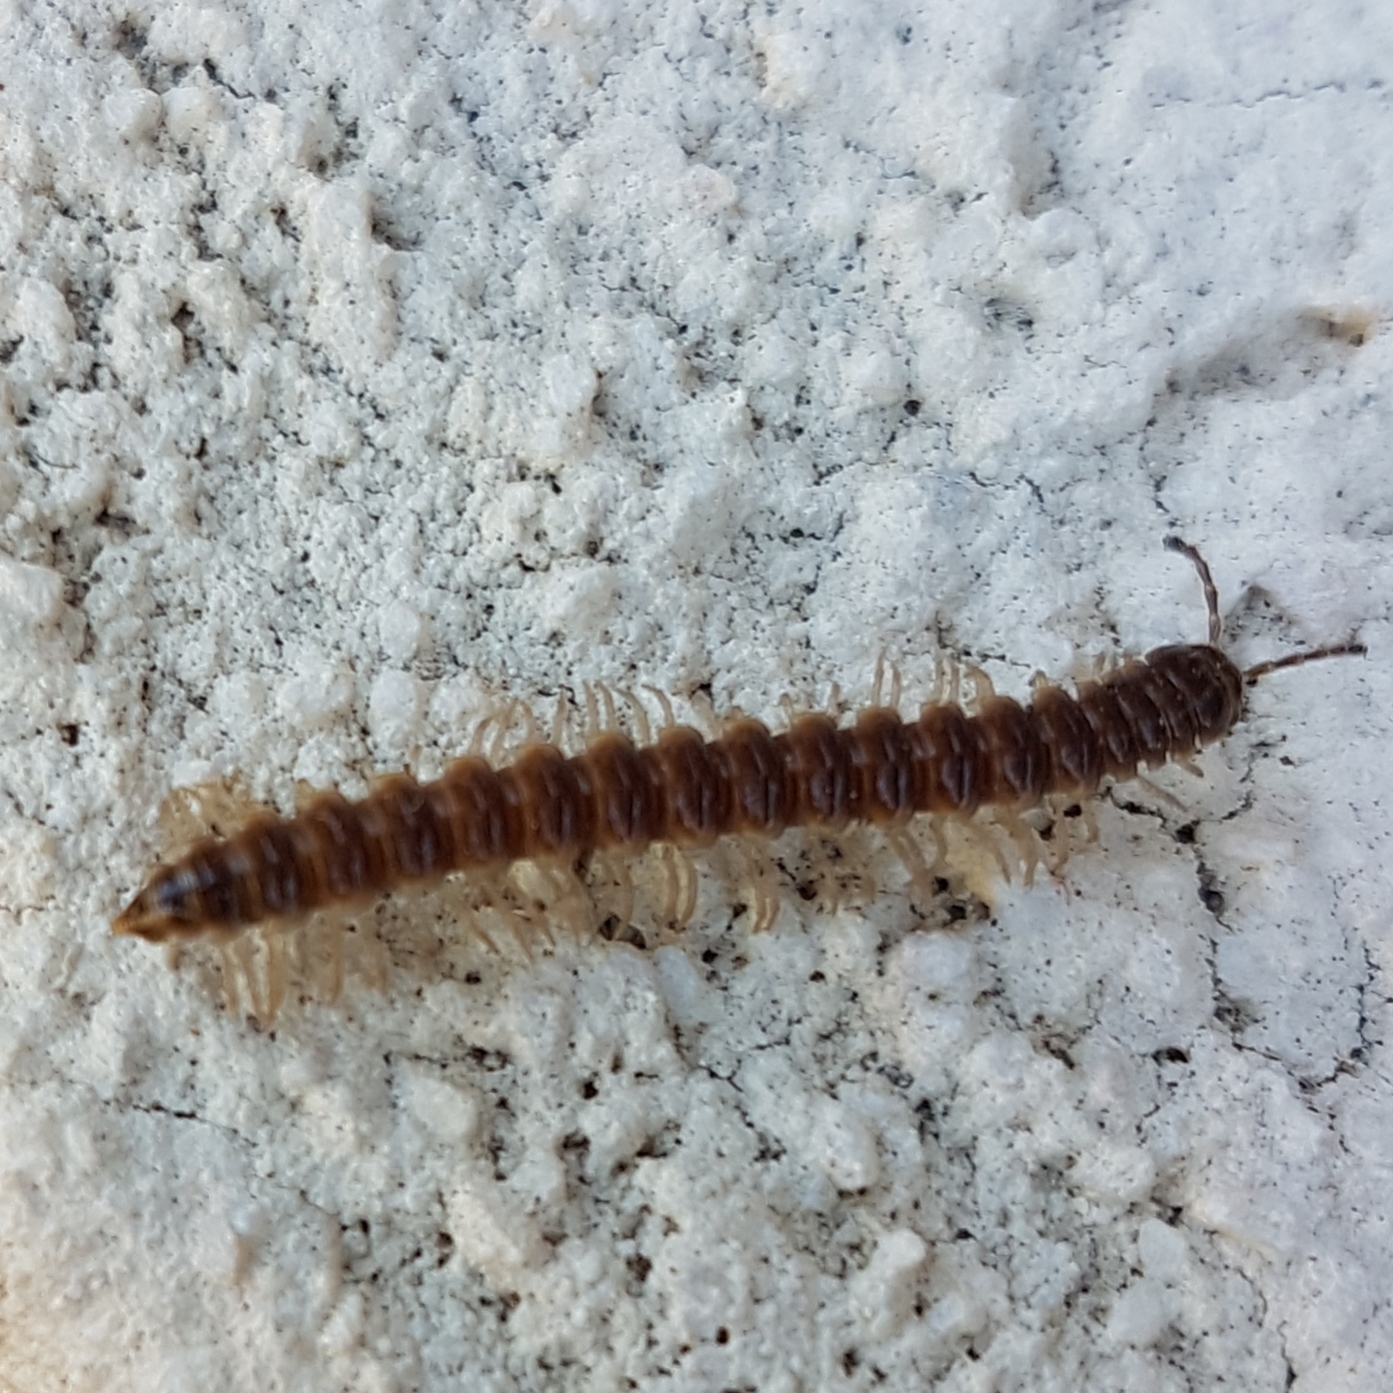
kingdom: Animalia
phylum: Arthropoda
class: Diplopoda
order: Polydesmida
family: Paradoxosomatidae
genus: Oxidus
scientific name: Oxidus gracilis
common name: Greenhouse millipede
